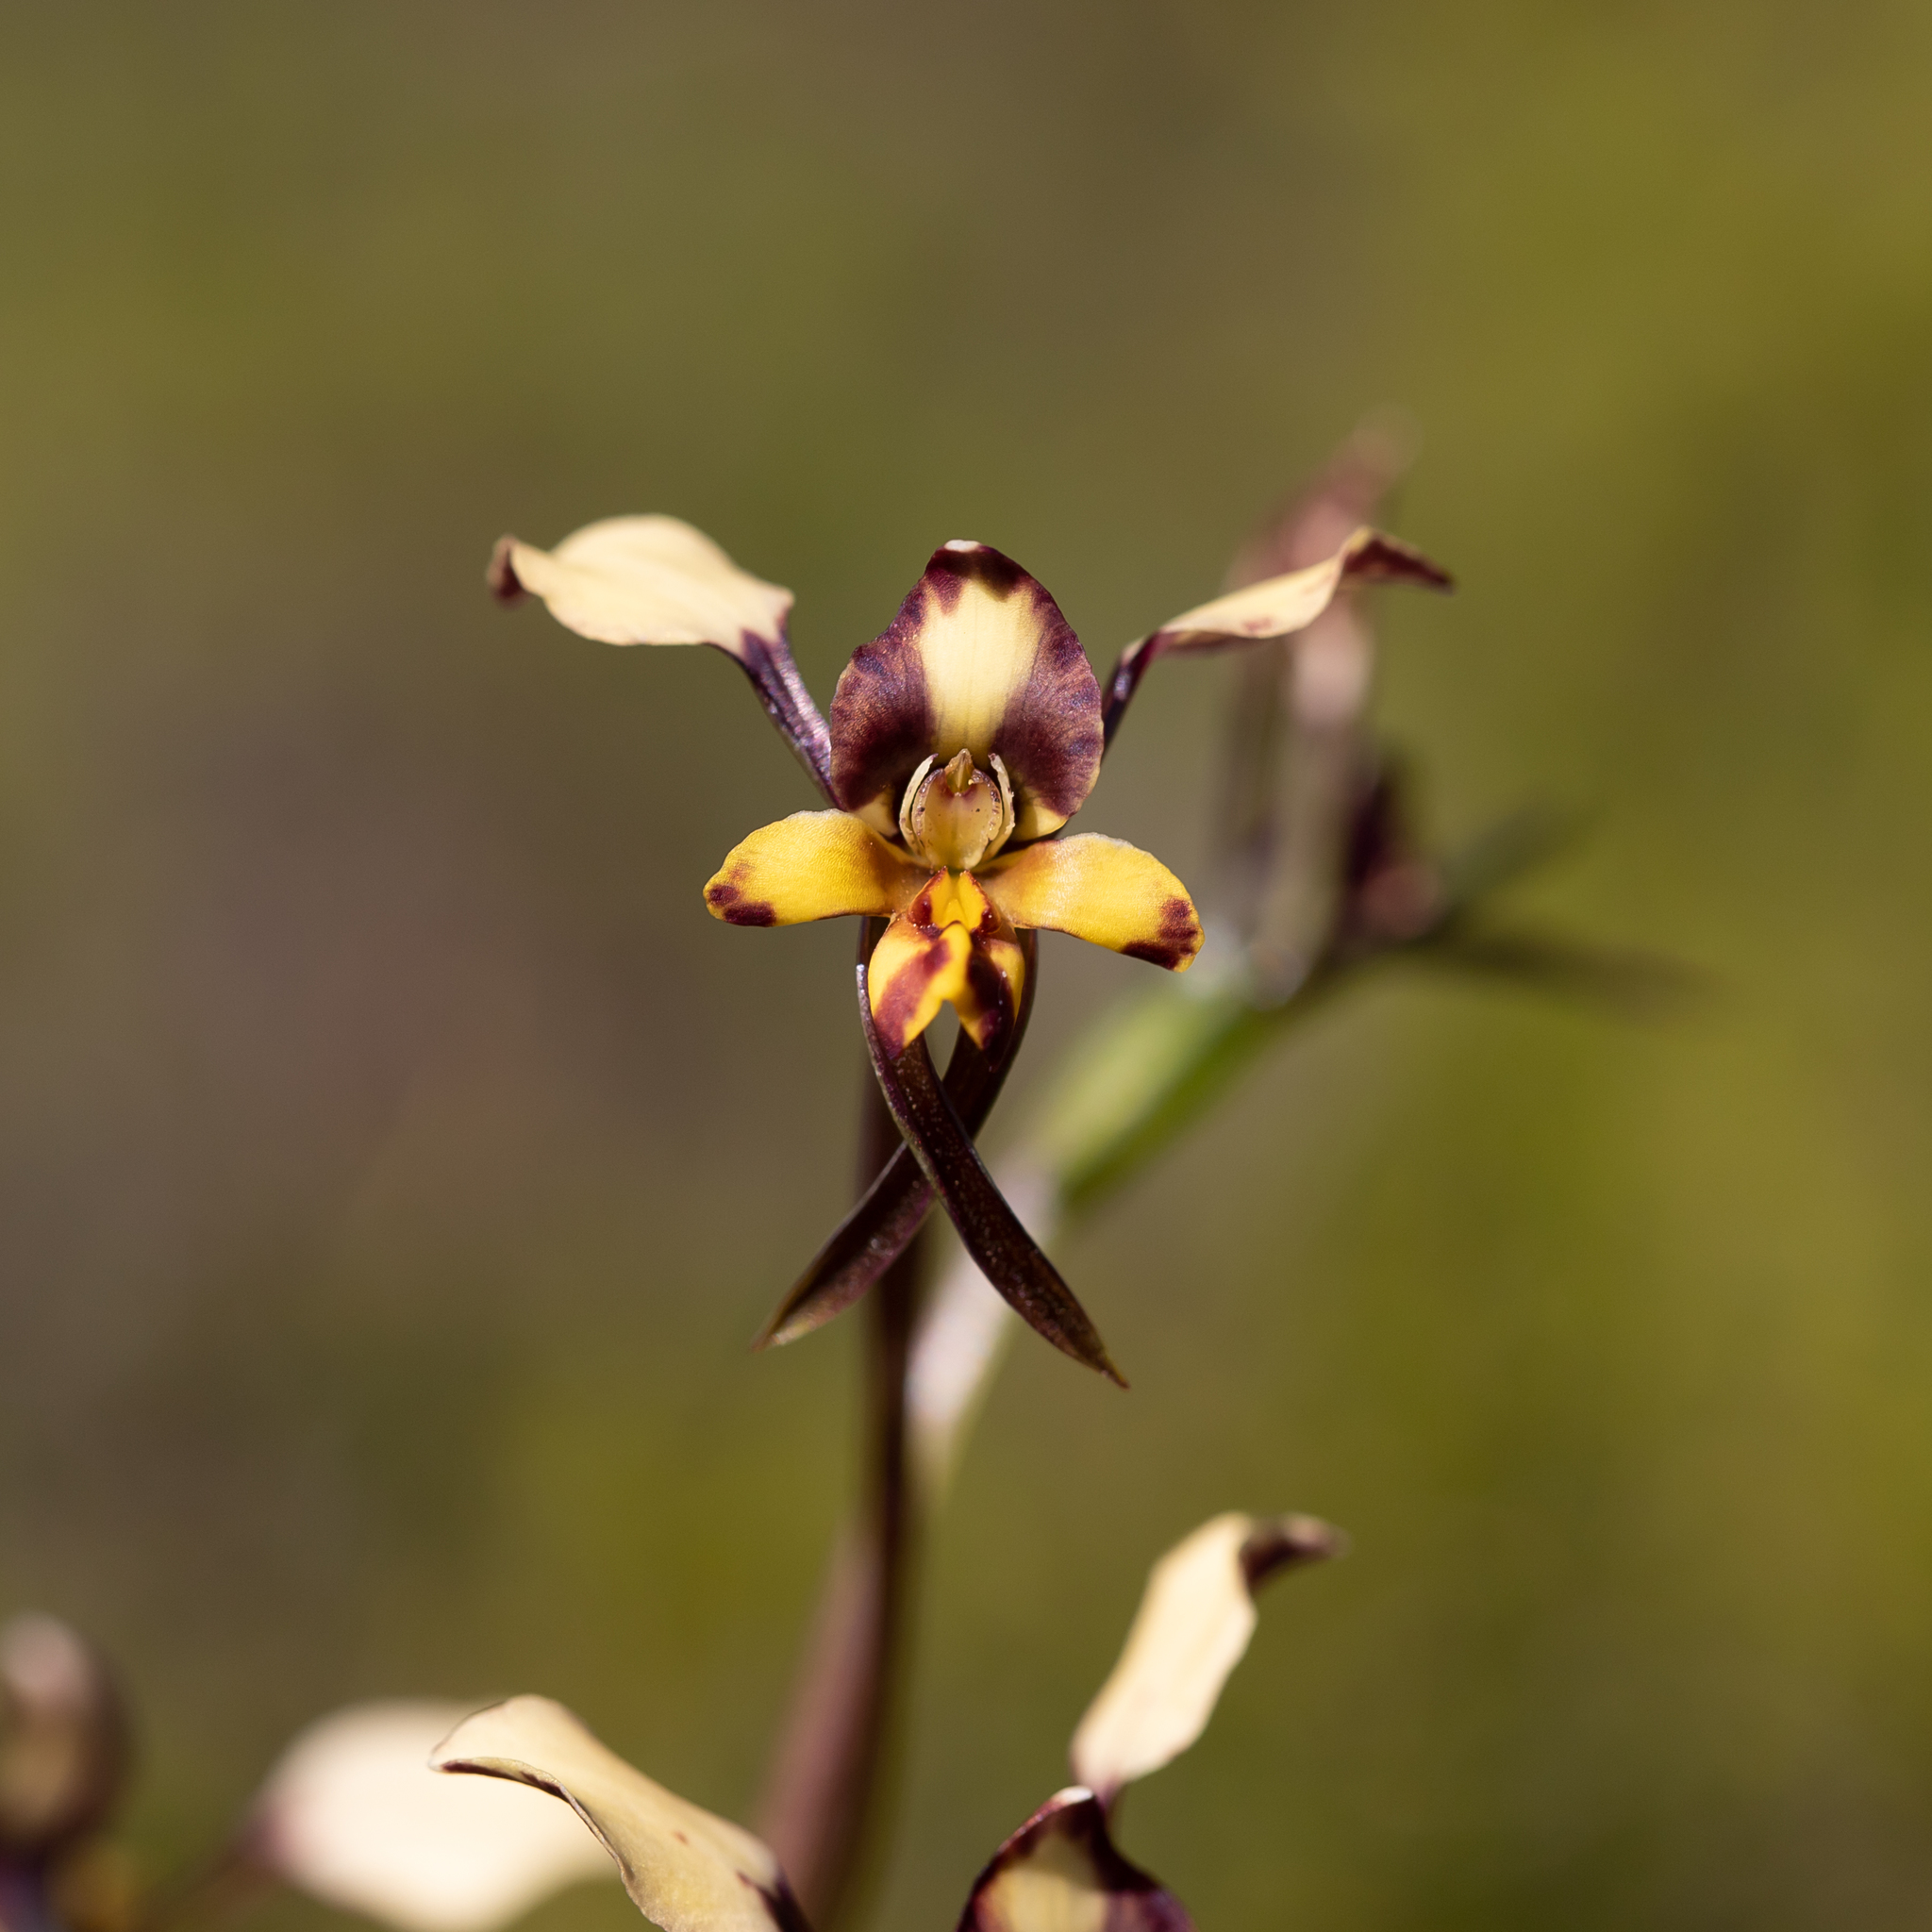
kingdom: Plantae
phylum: Tracheophyta
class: Liliopsida
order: Asparagales
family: Orchidaceae
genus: Diuris
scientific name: Diuris pardina
